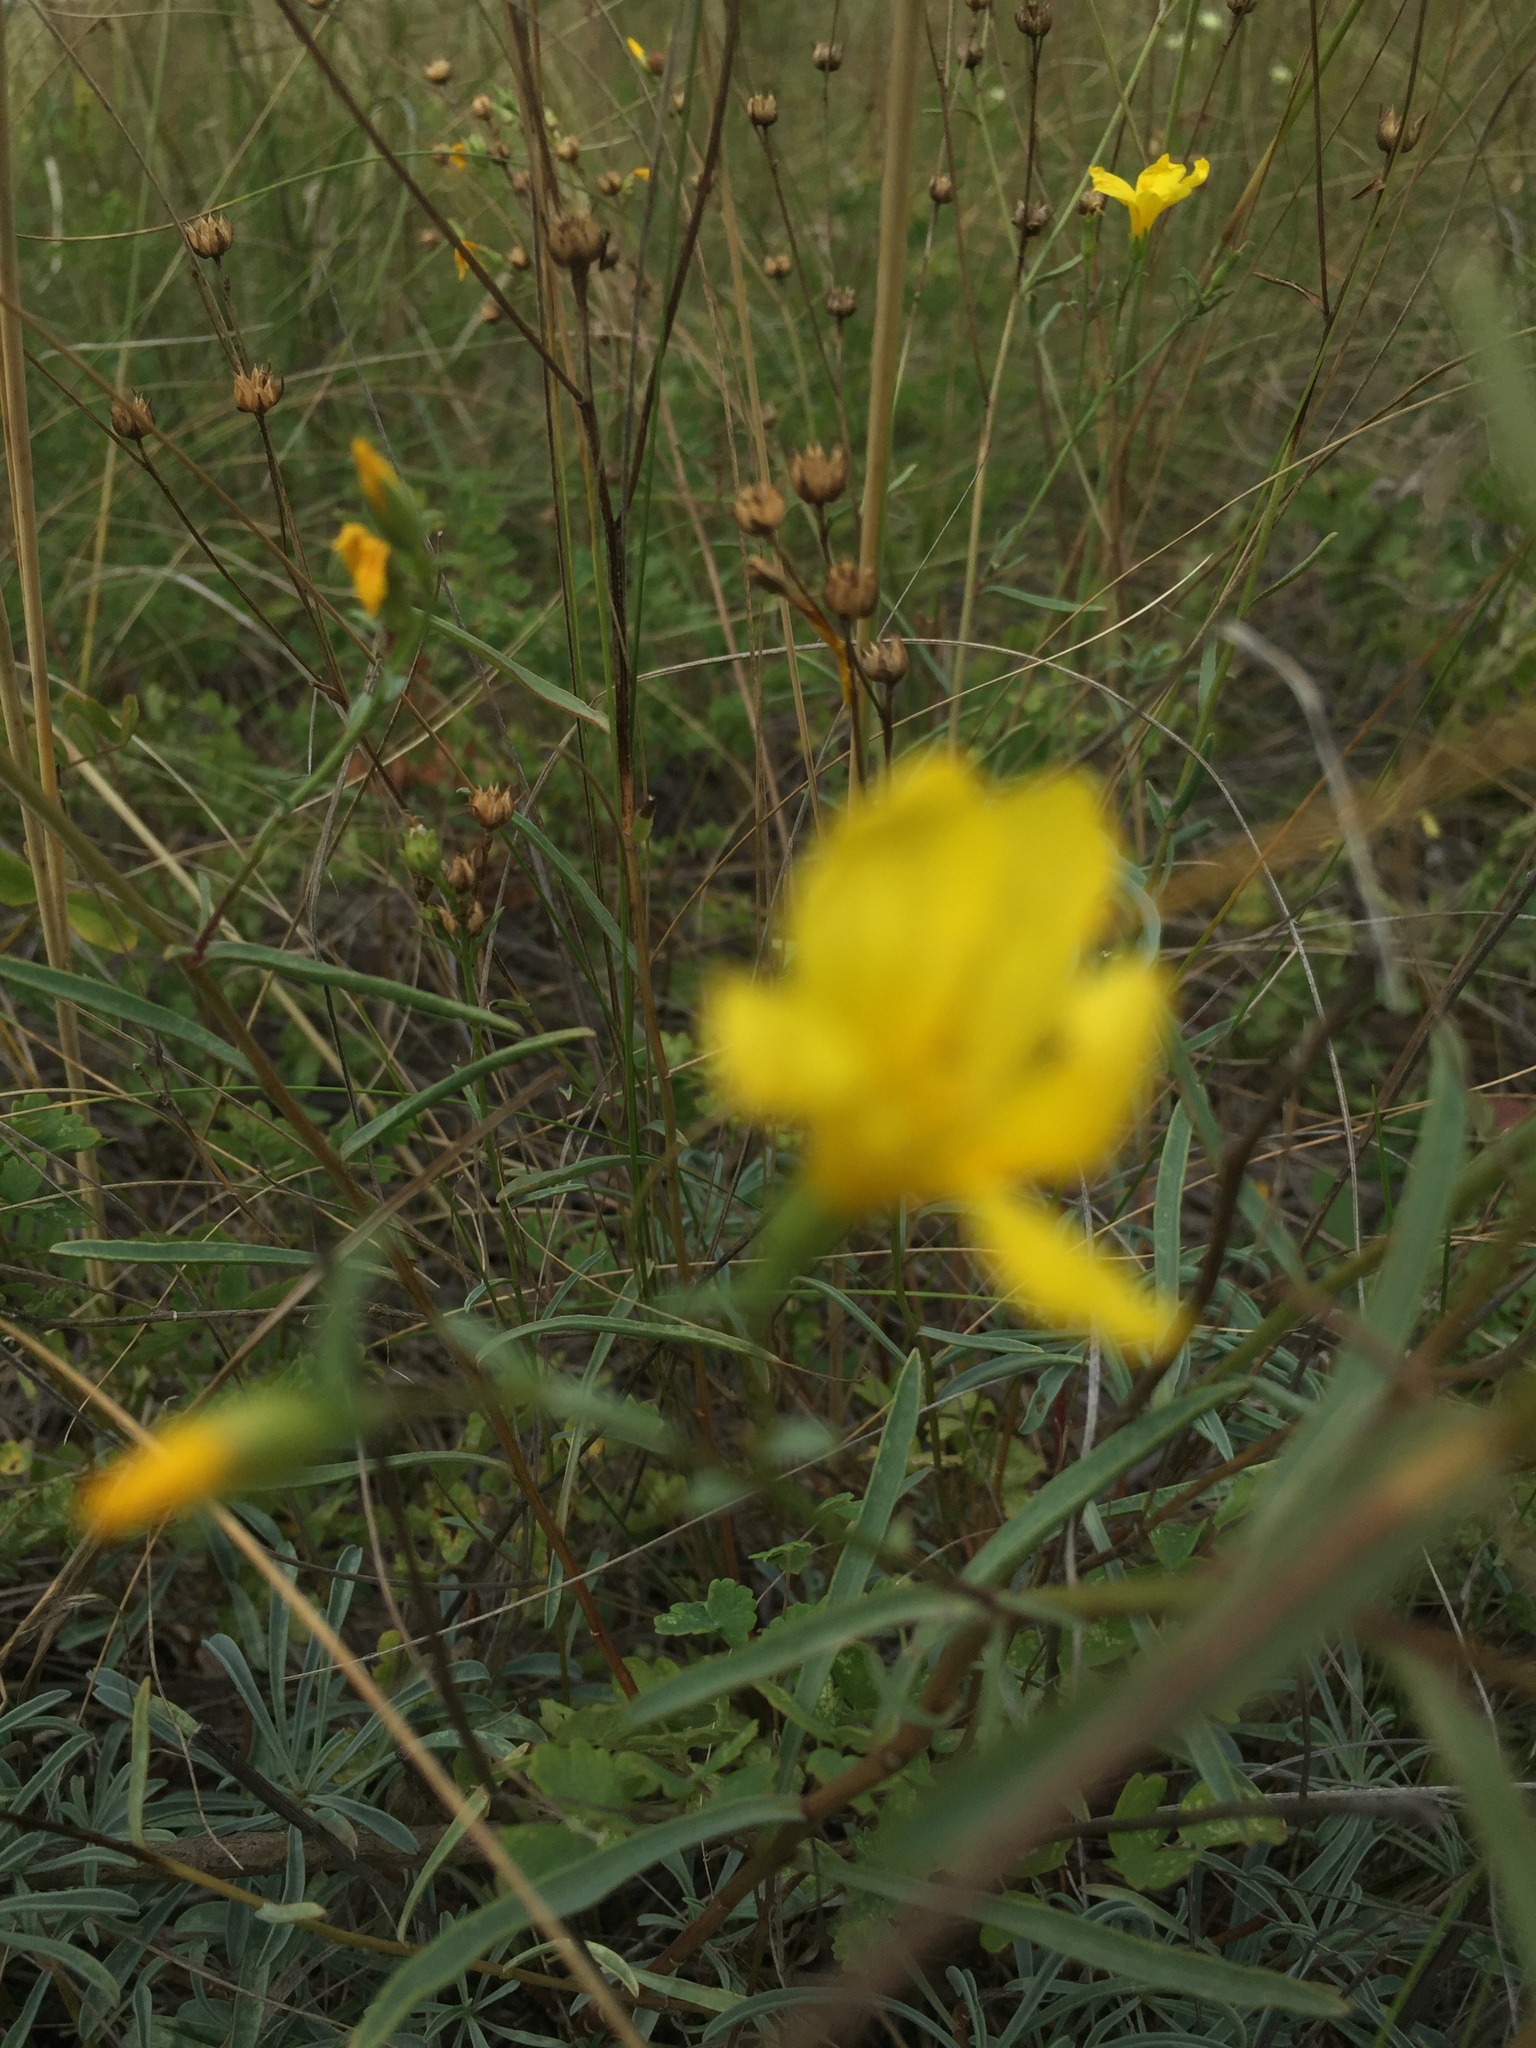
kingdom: Plantae
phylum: Tracheophyta
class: Magnoliopsida
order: Malpighiales
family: Linaceae
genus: Linum
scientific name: Linum ucranicum
